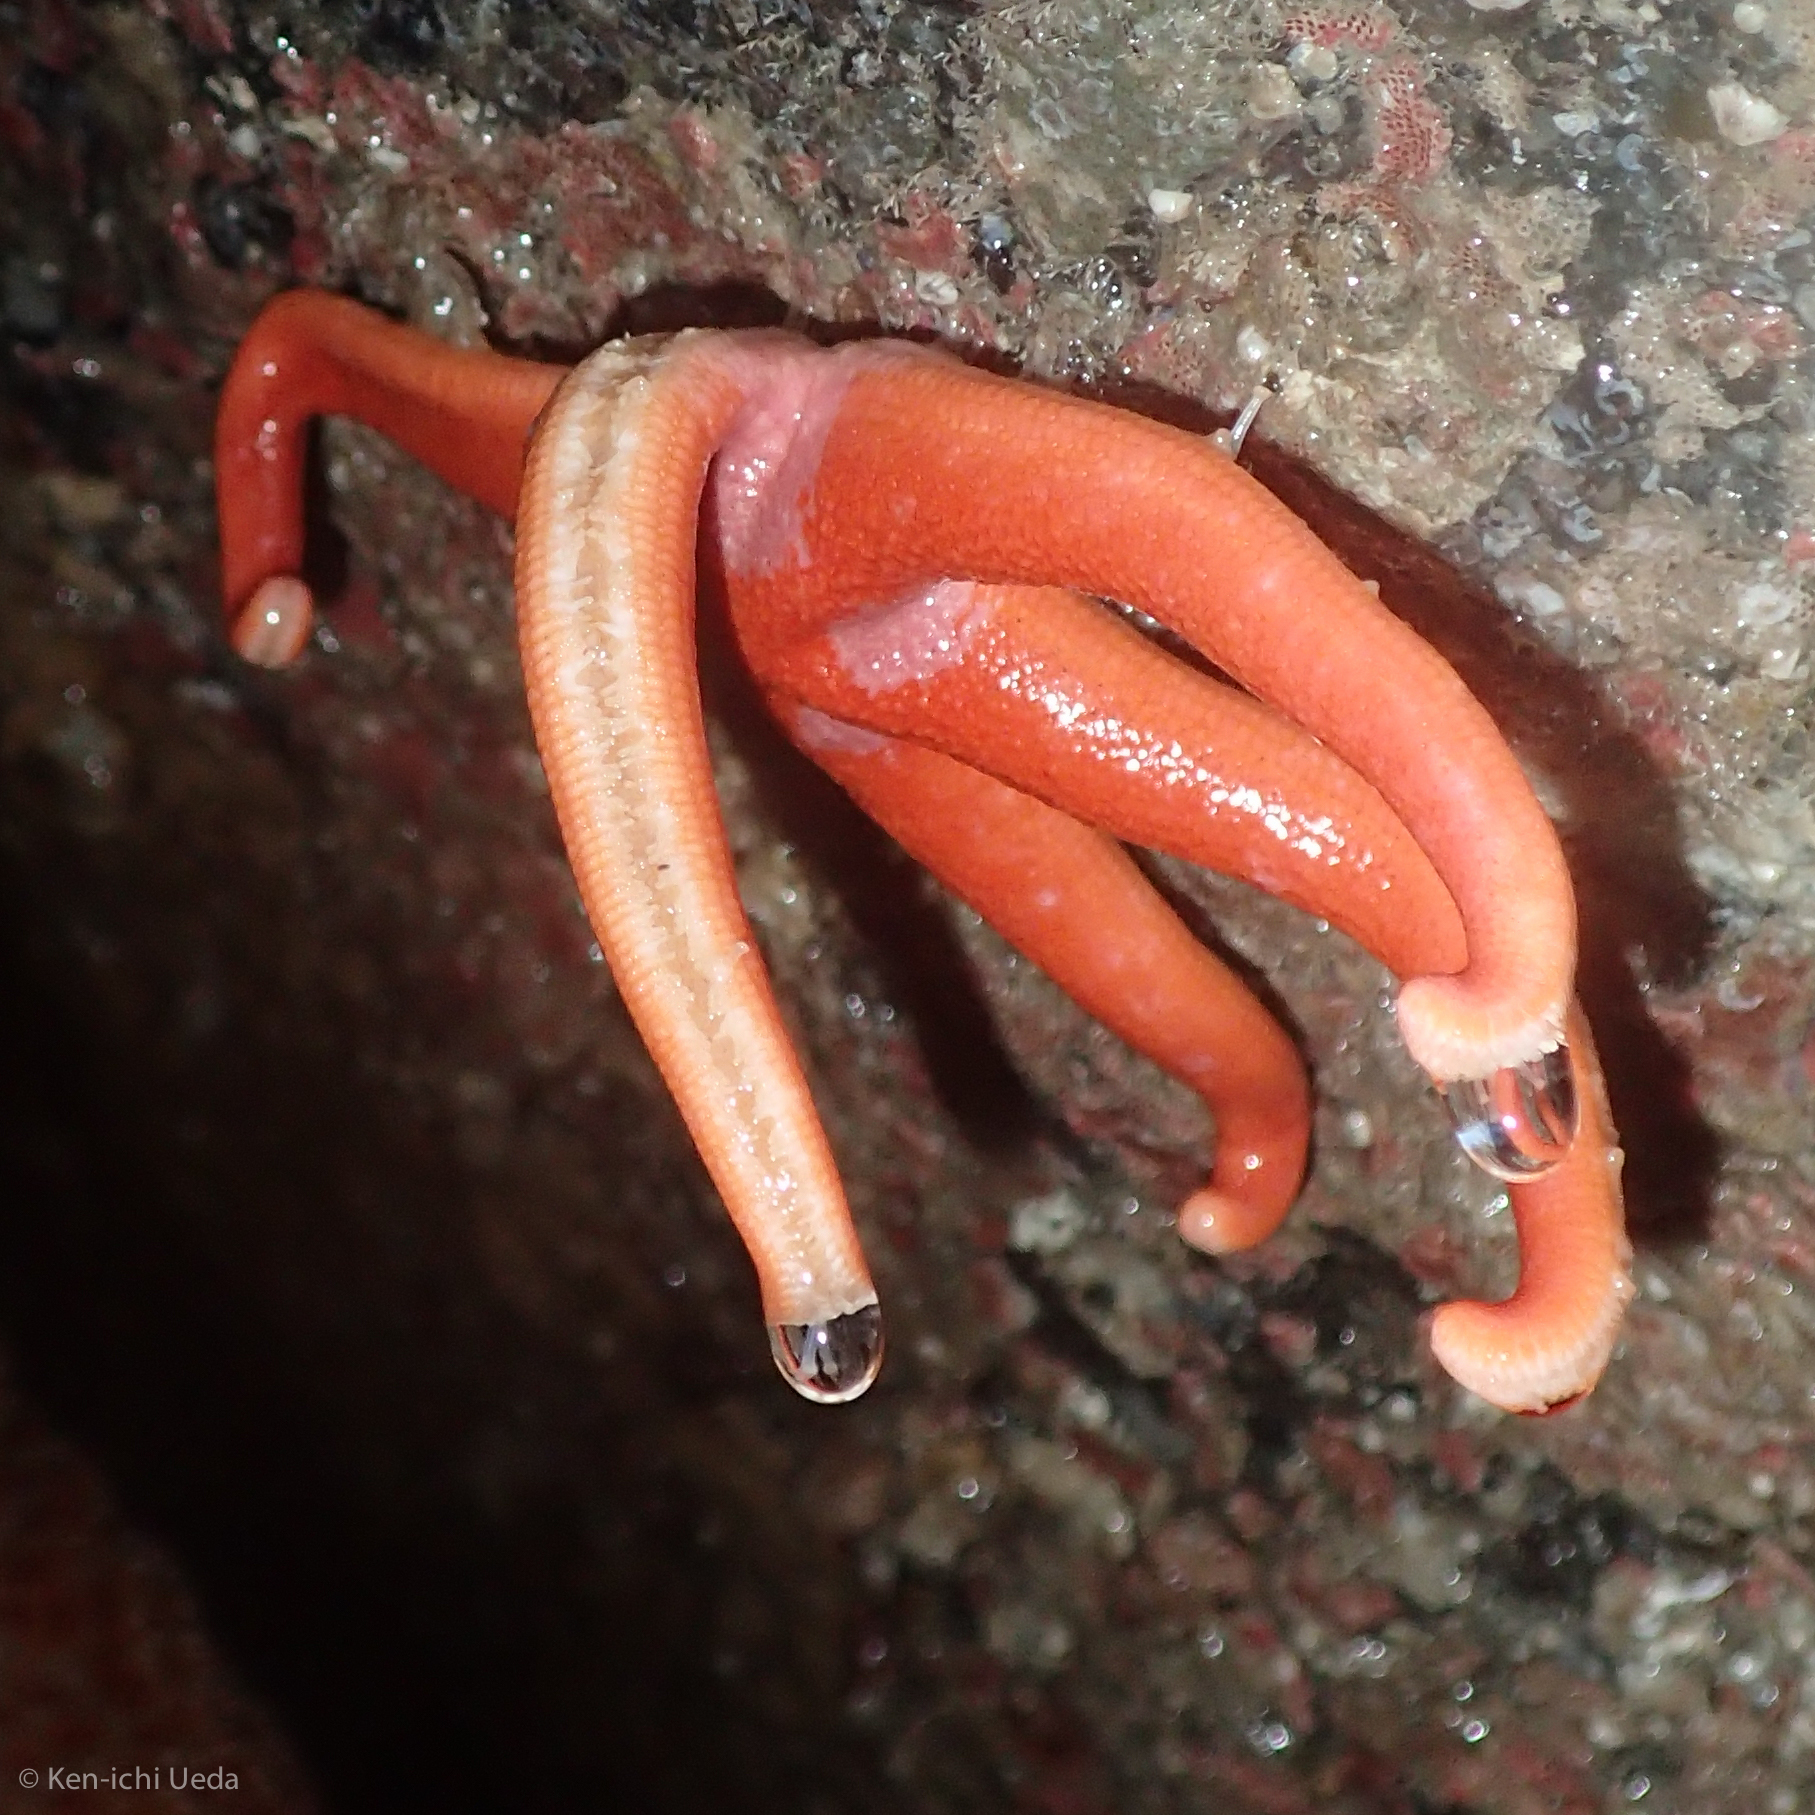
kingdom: Animalia
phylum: Echinodermata
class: Asteroidea
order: Spinulosida
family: Echinasteridae
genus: Henricia
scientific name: Henricia leviuscula
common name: Pacific blood star
